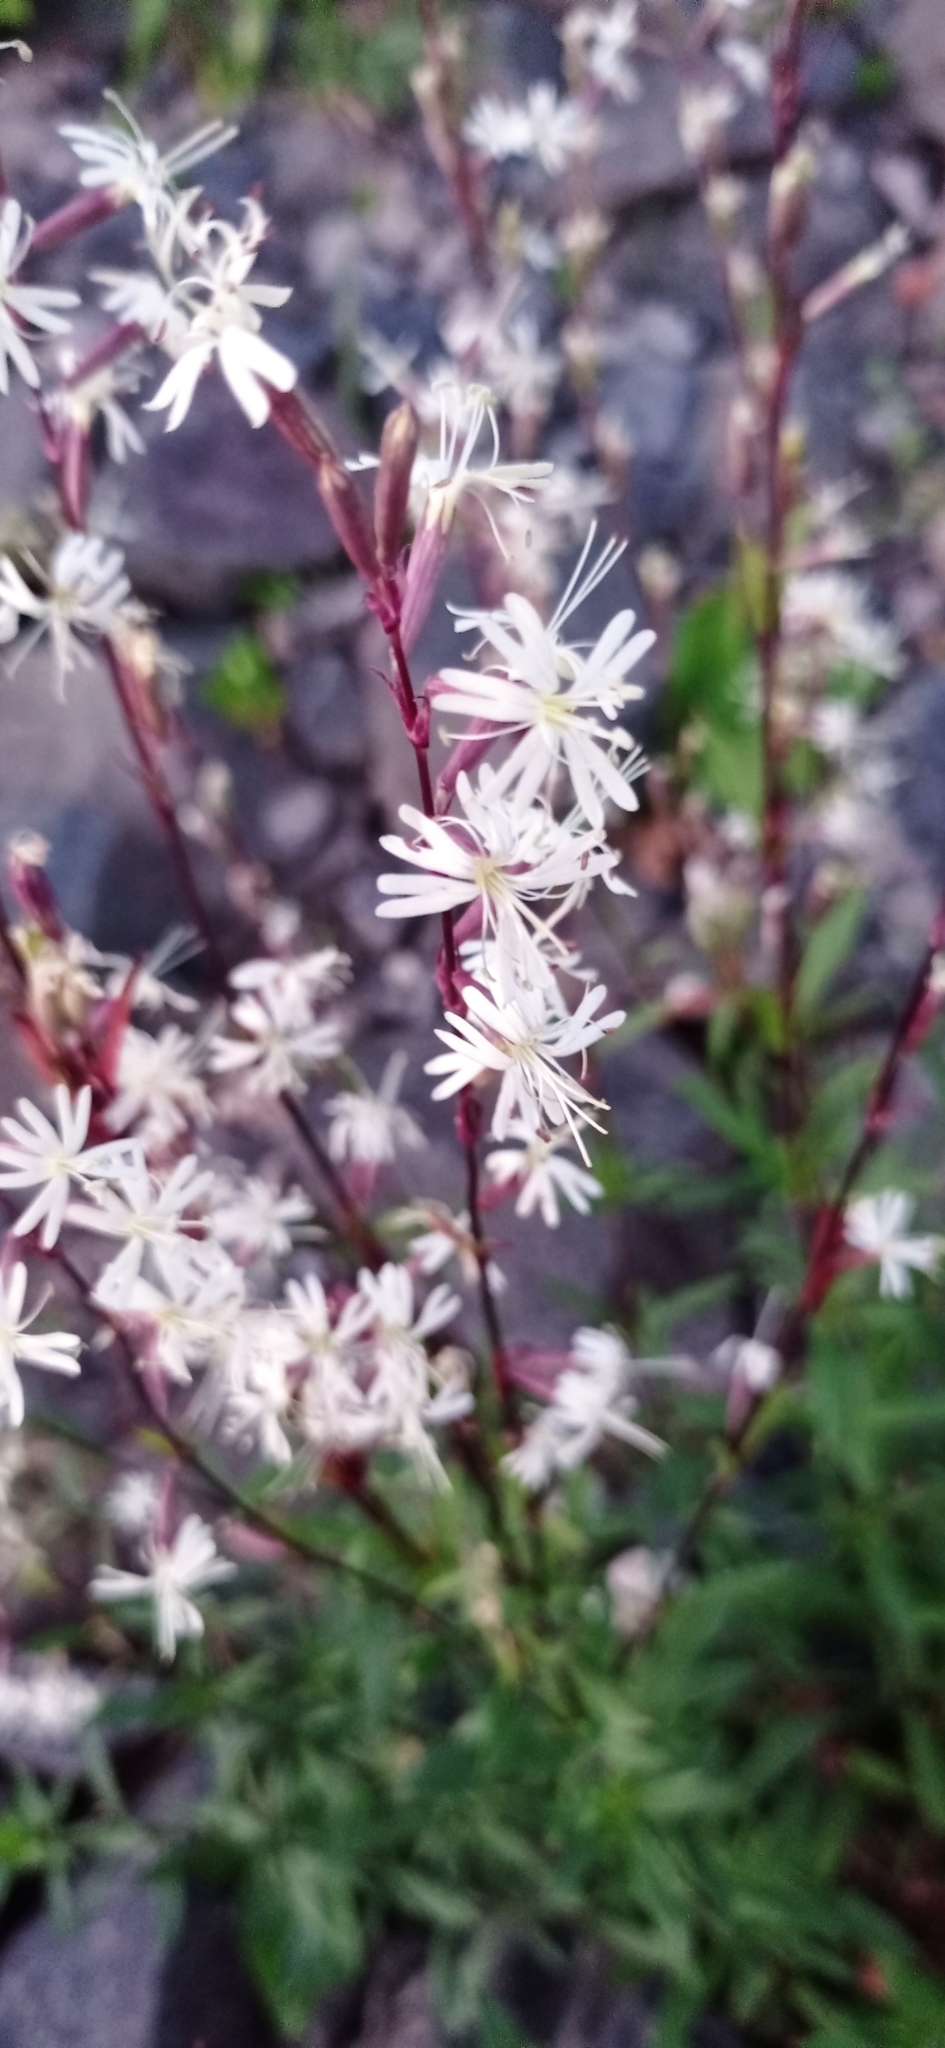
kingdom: Plantae
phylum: Tracheophyta
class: Magnoliopsida
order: Caryophyllales
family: Caryophyllaceae
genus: Silene
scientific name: Silene tatarica
